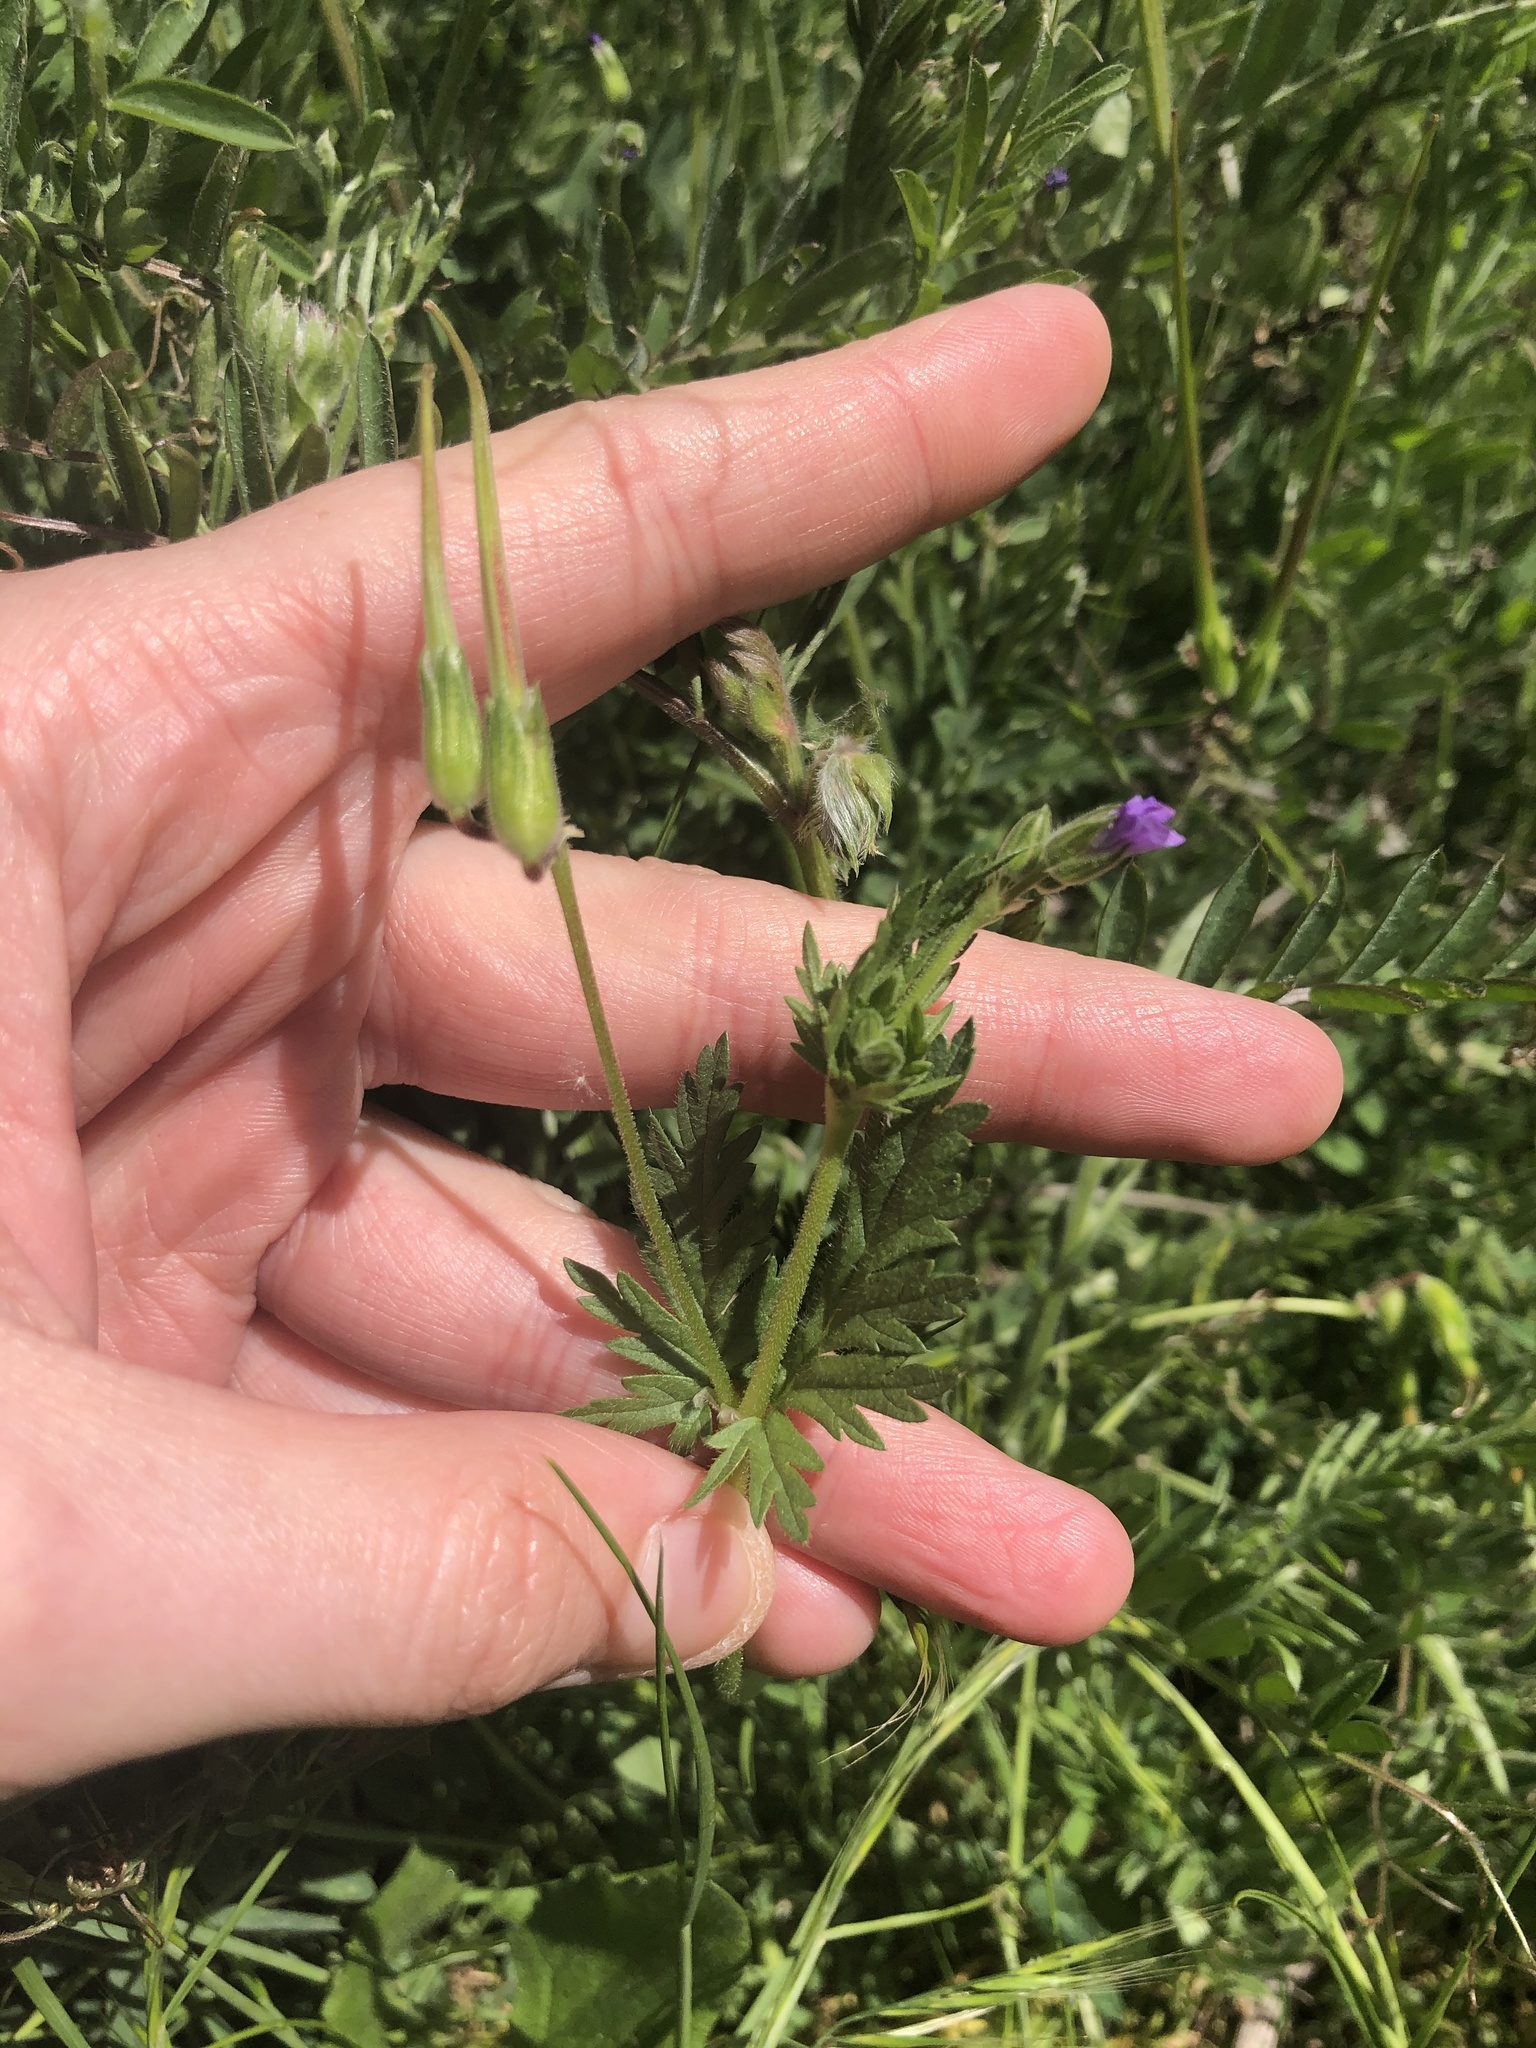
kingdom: Plantae
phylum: Tracheophyta
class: Magnoliopsida
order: Geraniales
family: Geraniaceae
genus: Erodium
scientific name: Erodium brachycarpum
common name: Hairy-pitted stork's-bill
